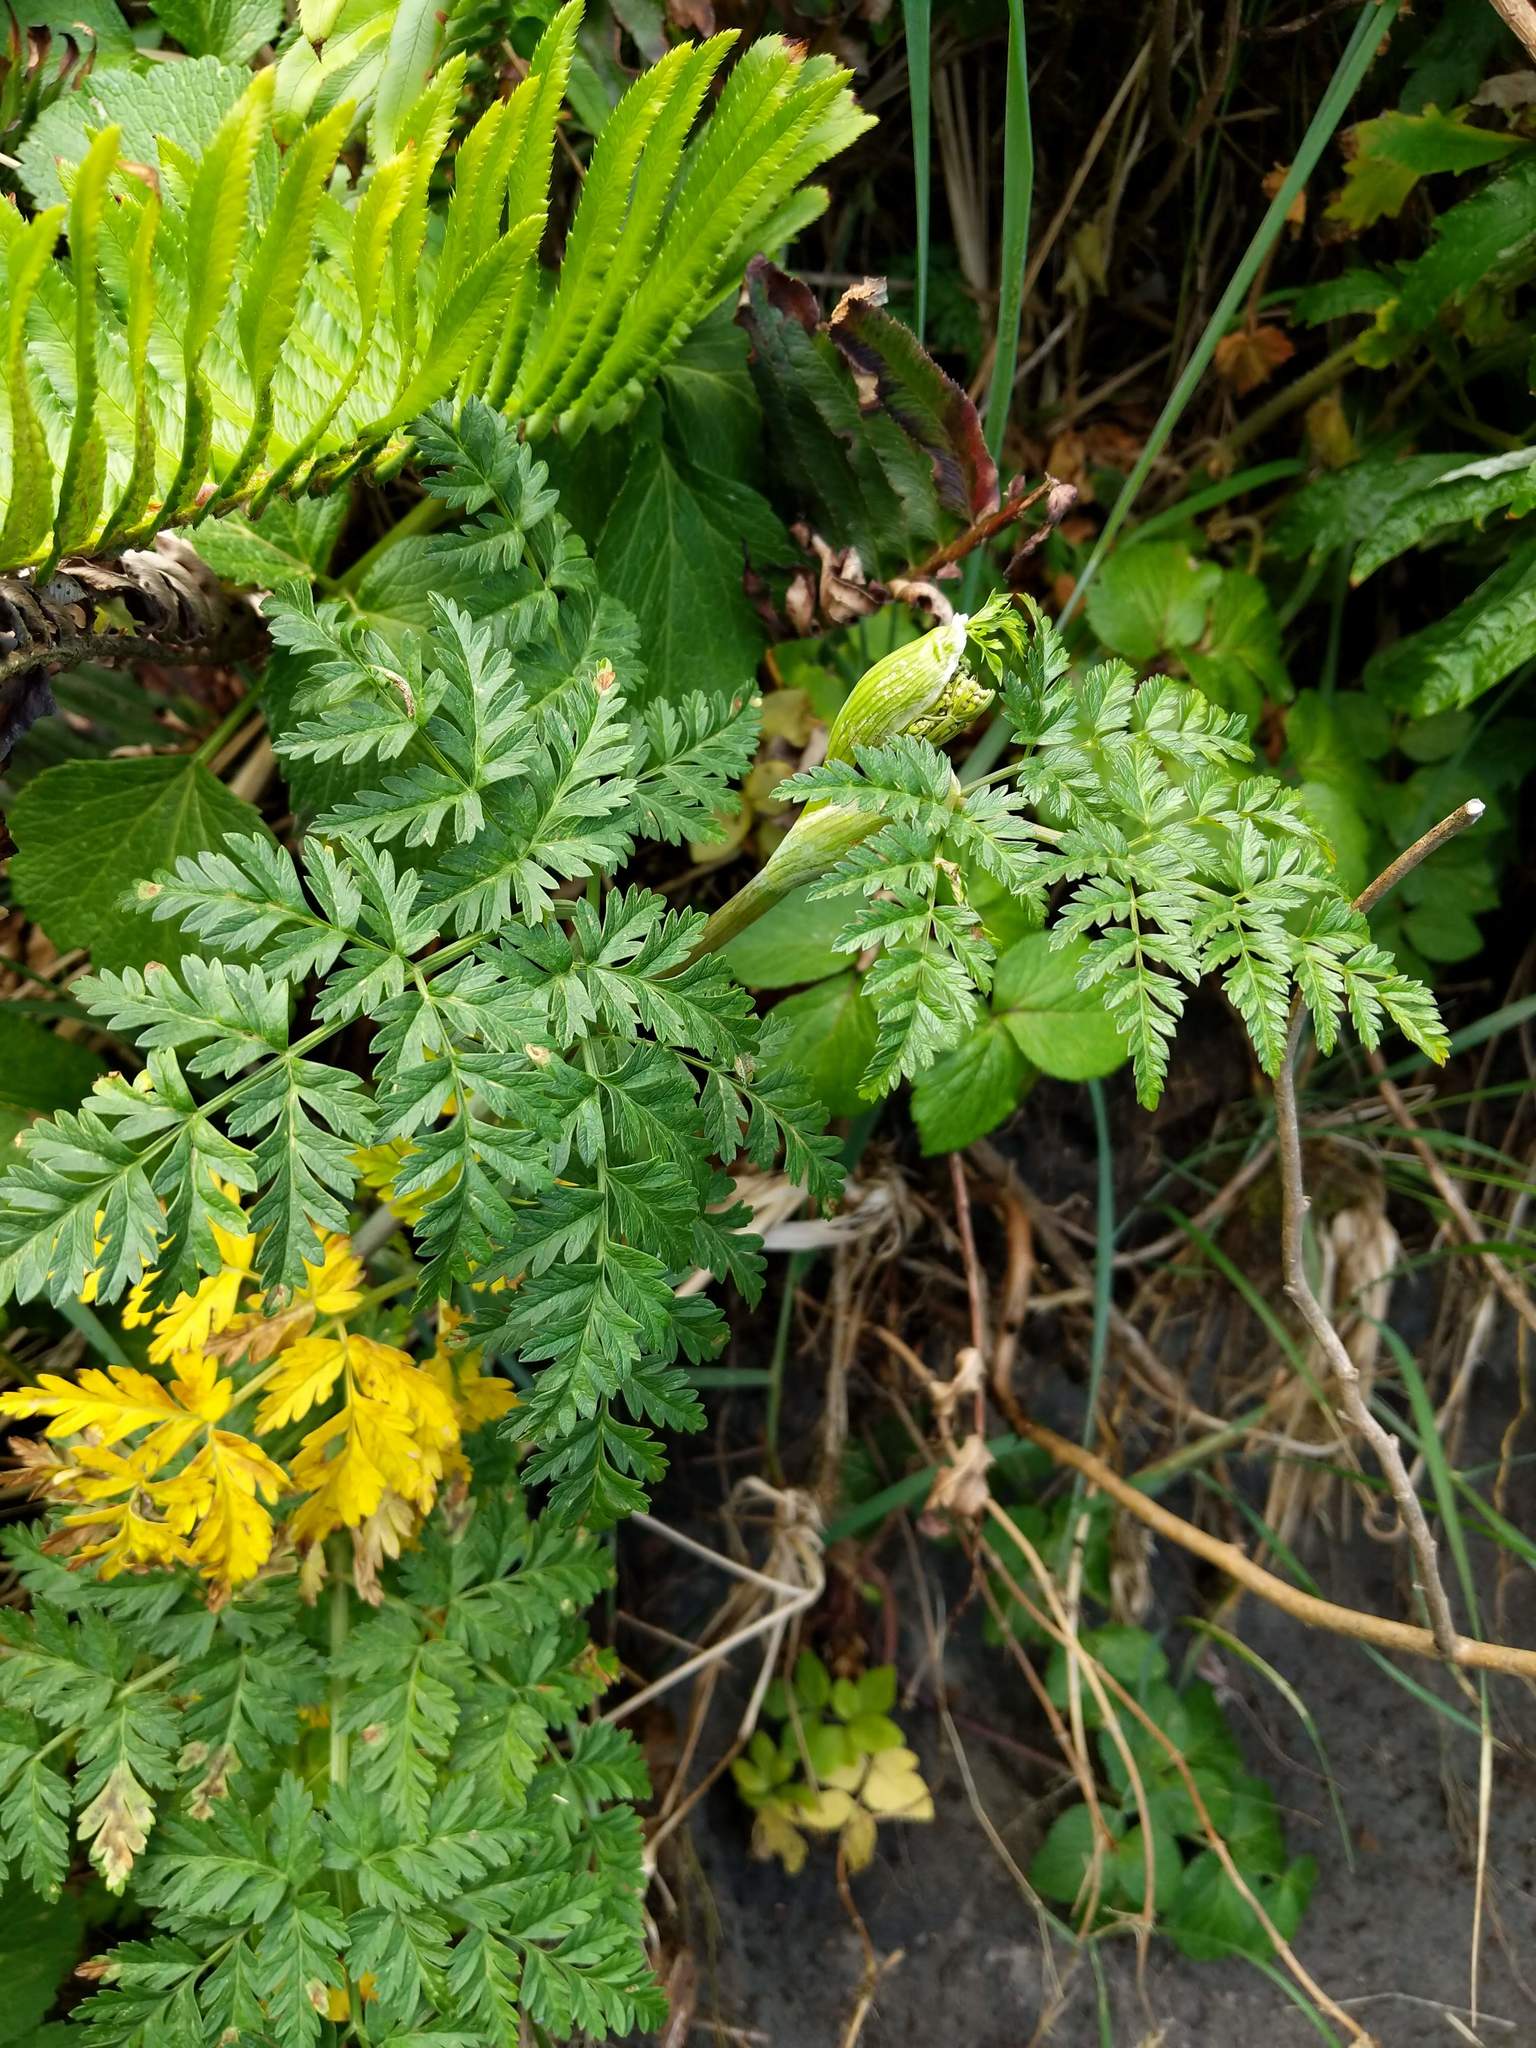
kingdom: Plantae
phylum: Tracheophyta
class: Magnoliopsida
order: Apiales
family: Apiaceae
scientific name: Apiaceae
